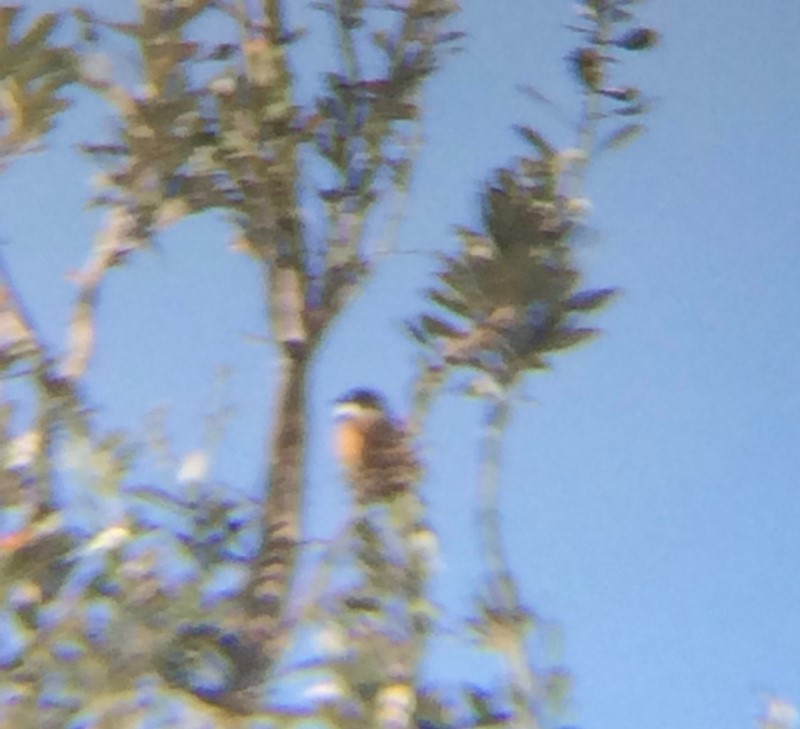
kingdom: Animalia
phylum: Chordata
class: Aves
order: Passeriformes
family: Pachycephalidae
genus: Pachycephala
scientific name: Pachycephala rufiventris
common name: Rufous whistler
